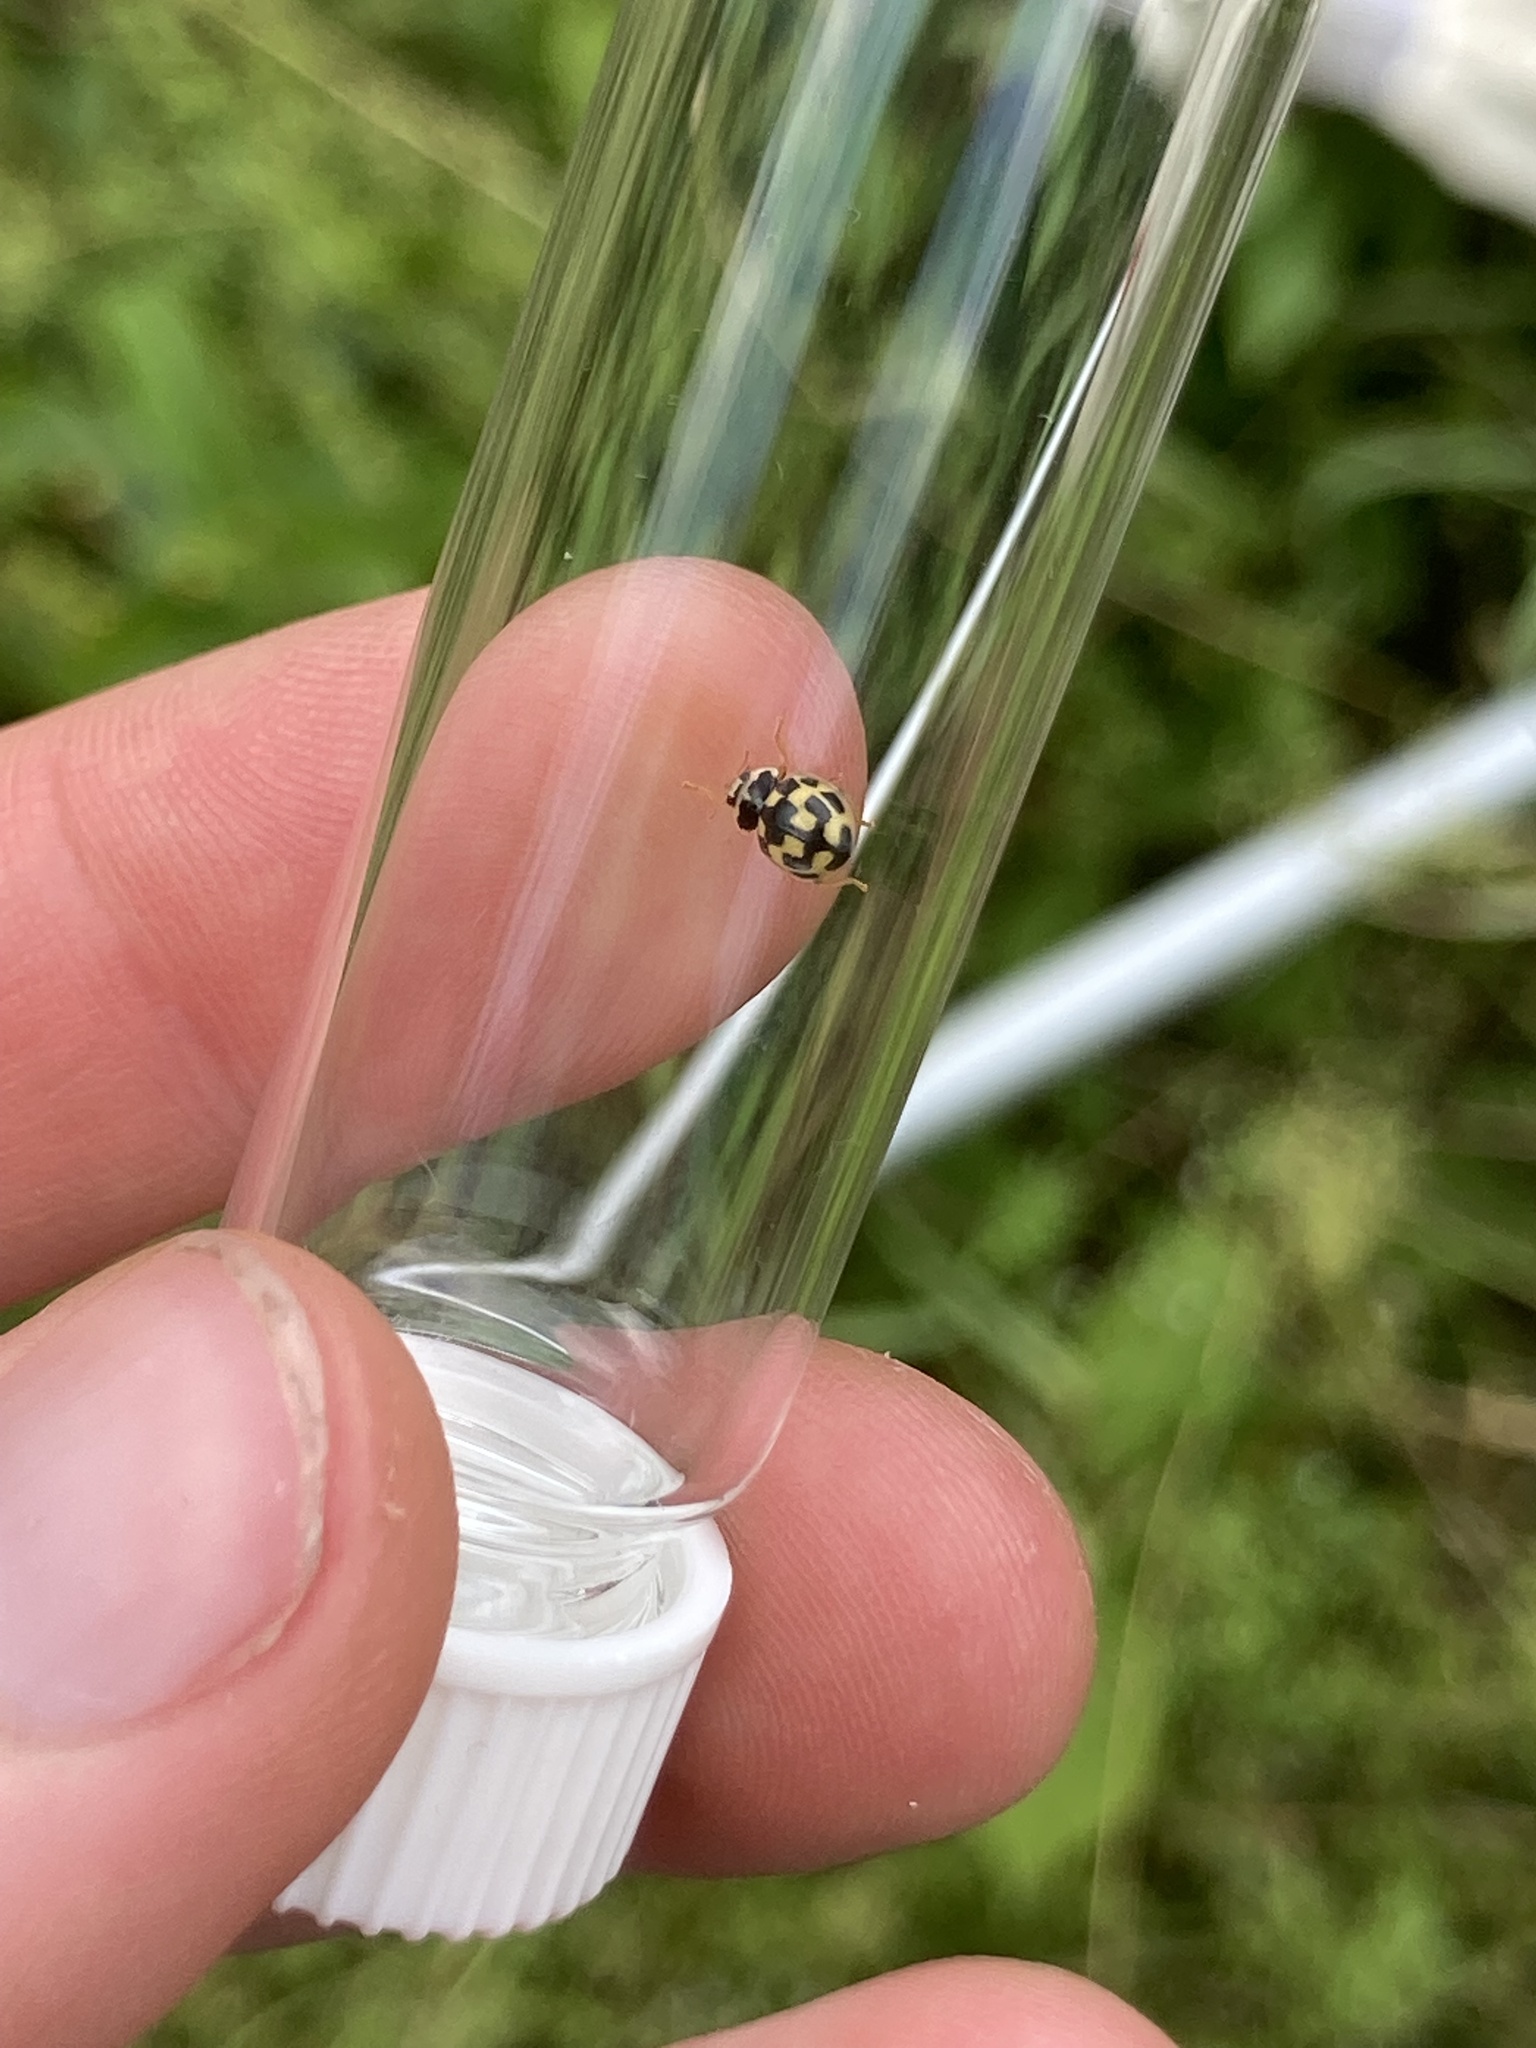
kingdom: Animalia
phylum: Arthropoda
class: Insecta
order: Coleoptera
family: Coccinellidae
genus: Propylaea
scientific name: Propylaea quatuordecimpunctata
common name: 14-spotted ladybird beetle
